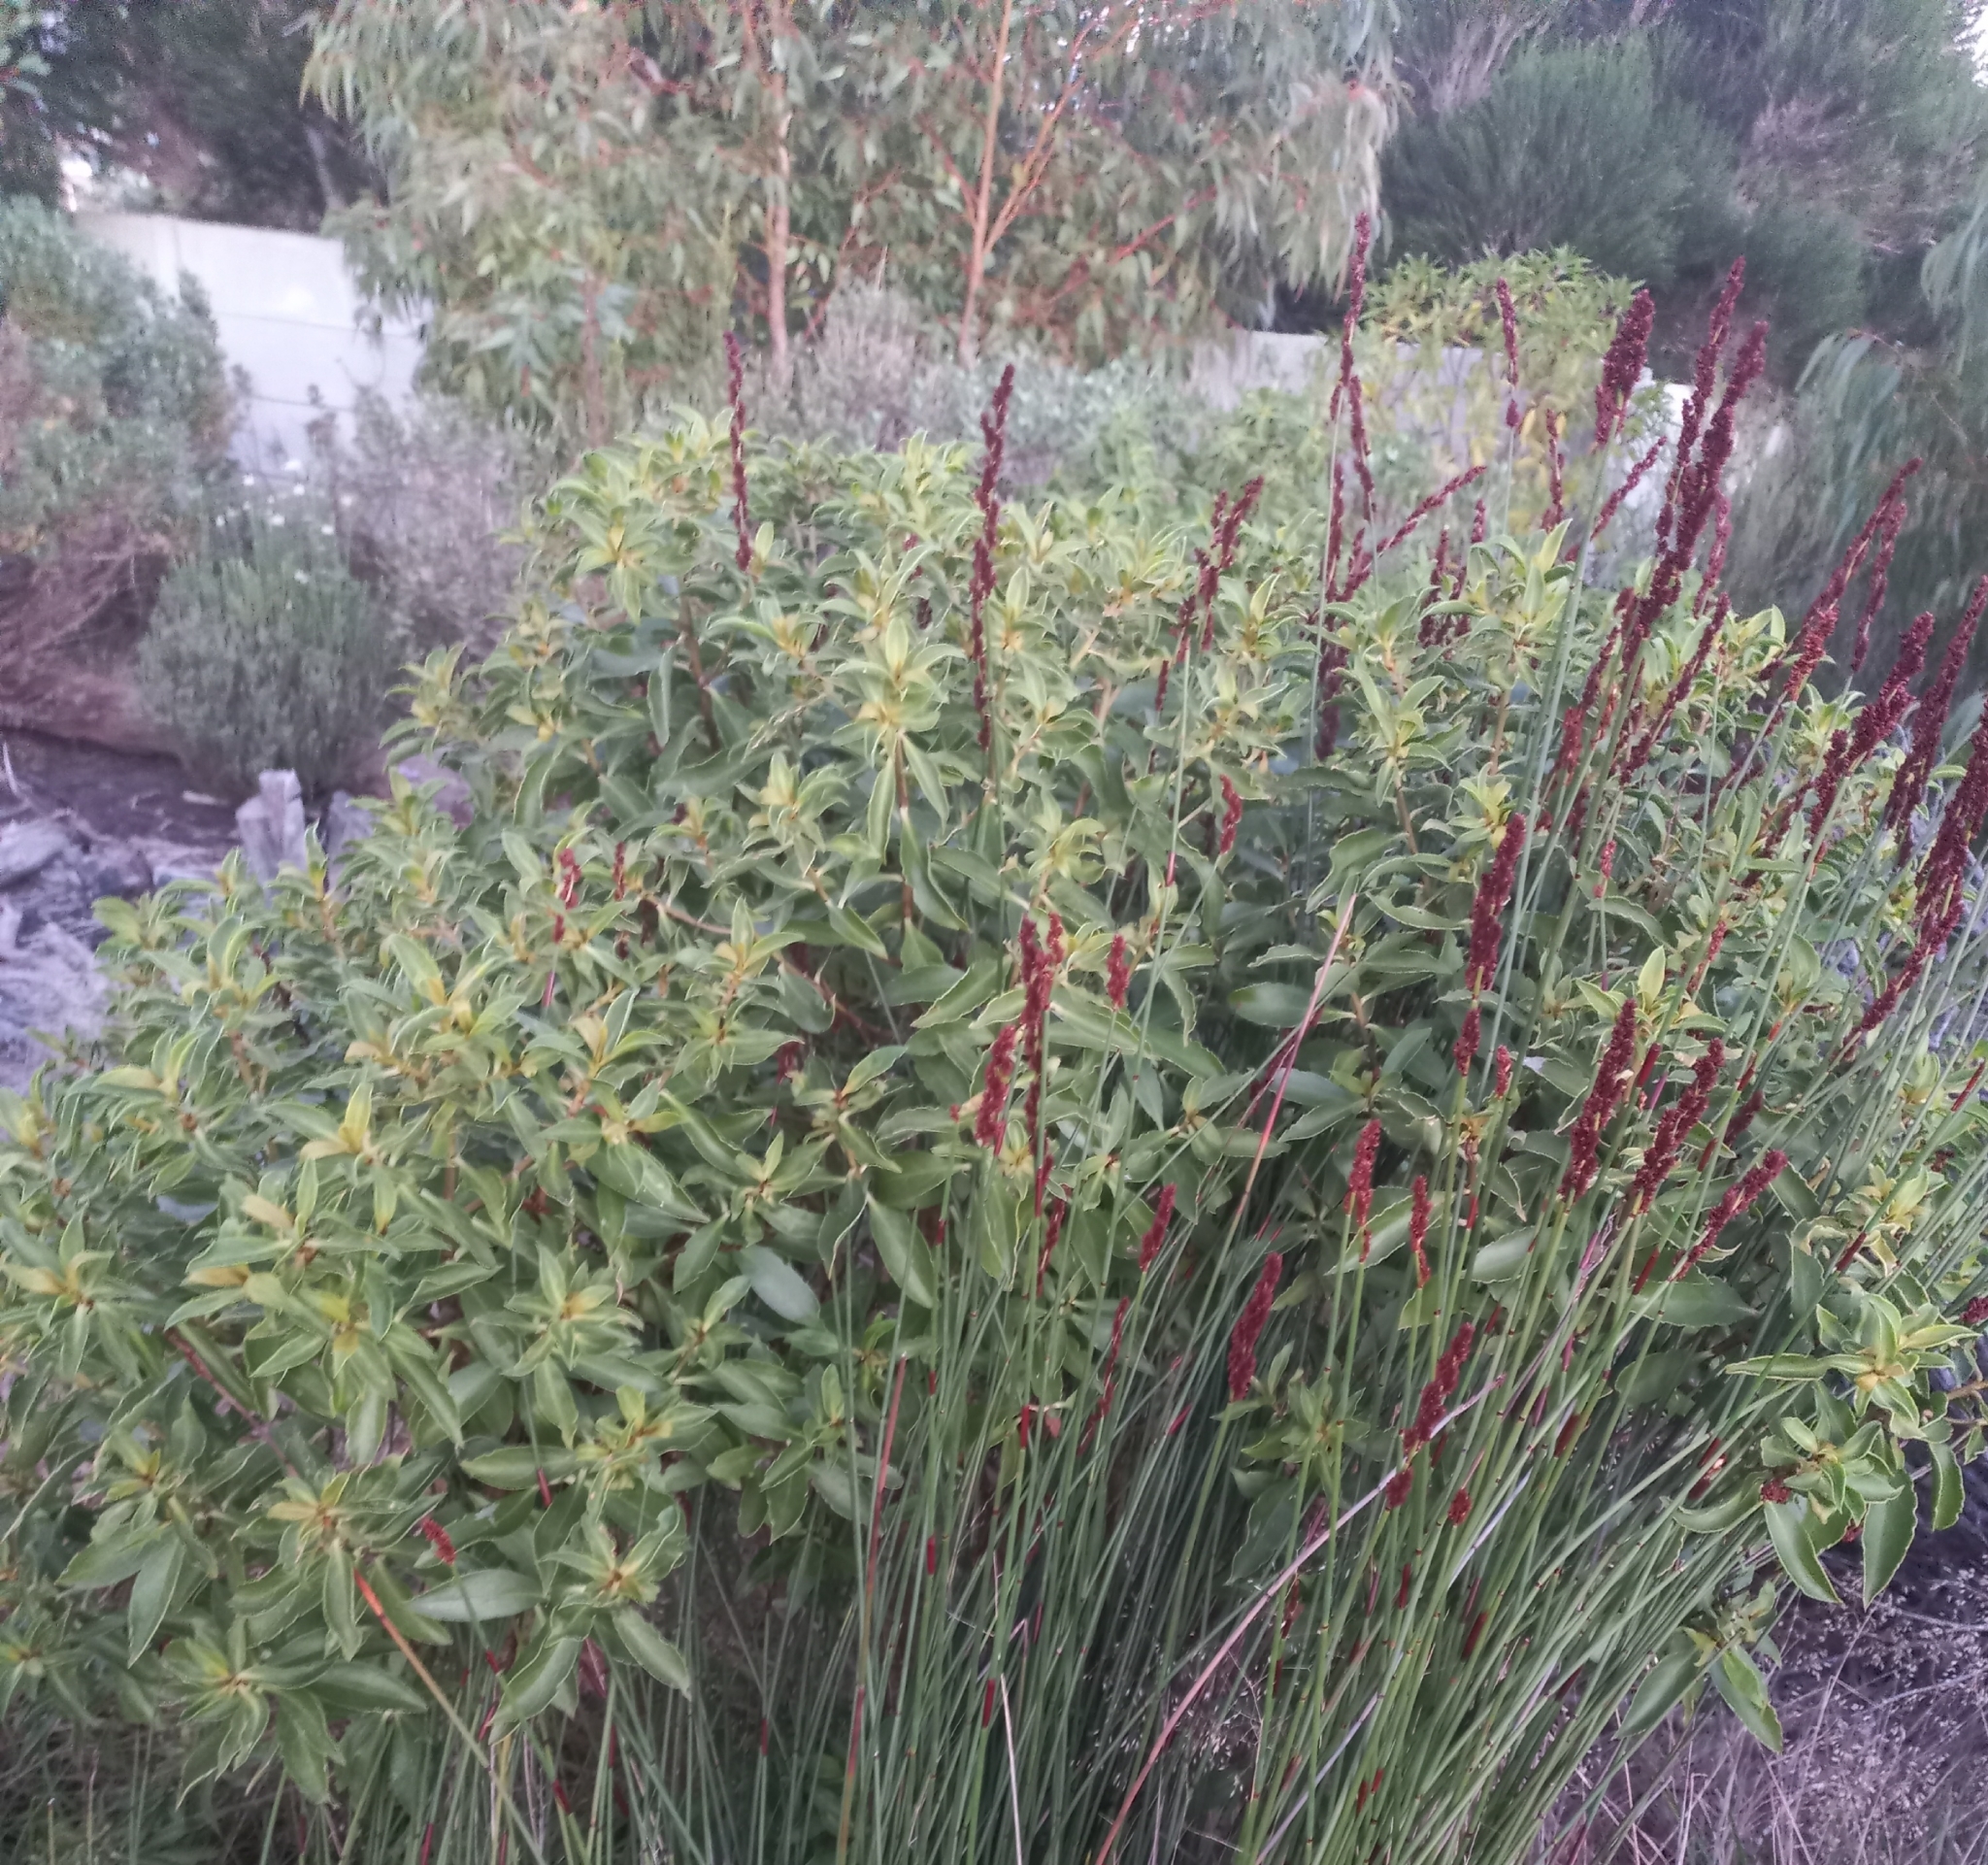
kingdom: Plantae
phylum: Tracheophyta
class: Magnoliopsida
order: Lamiales
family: Scrophulariaceae
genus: Myoporum
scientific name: Myoporum insulare
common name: Common boobialla
